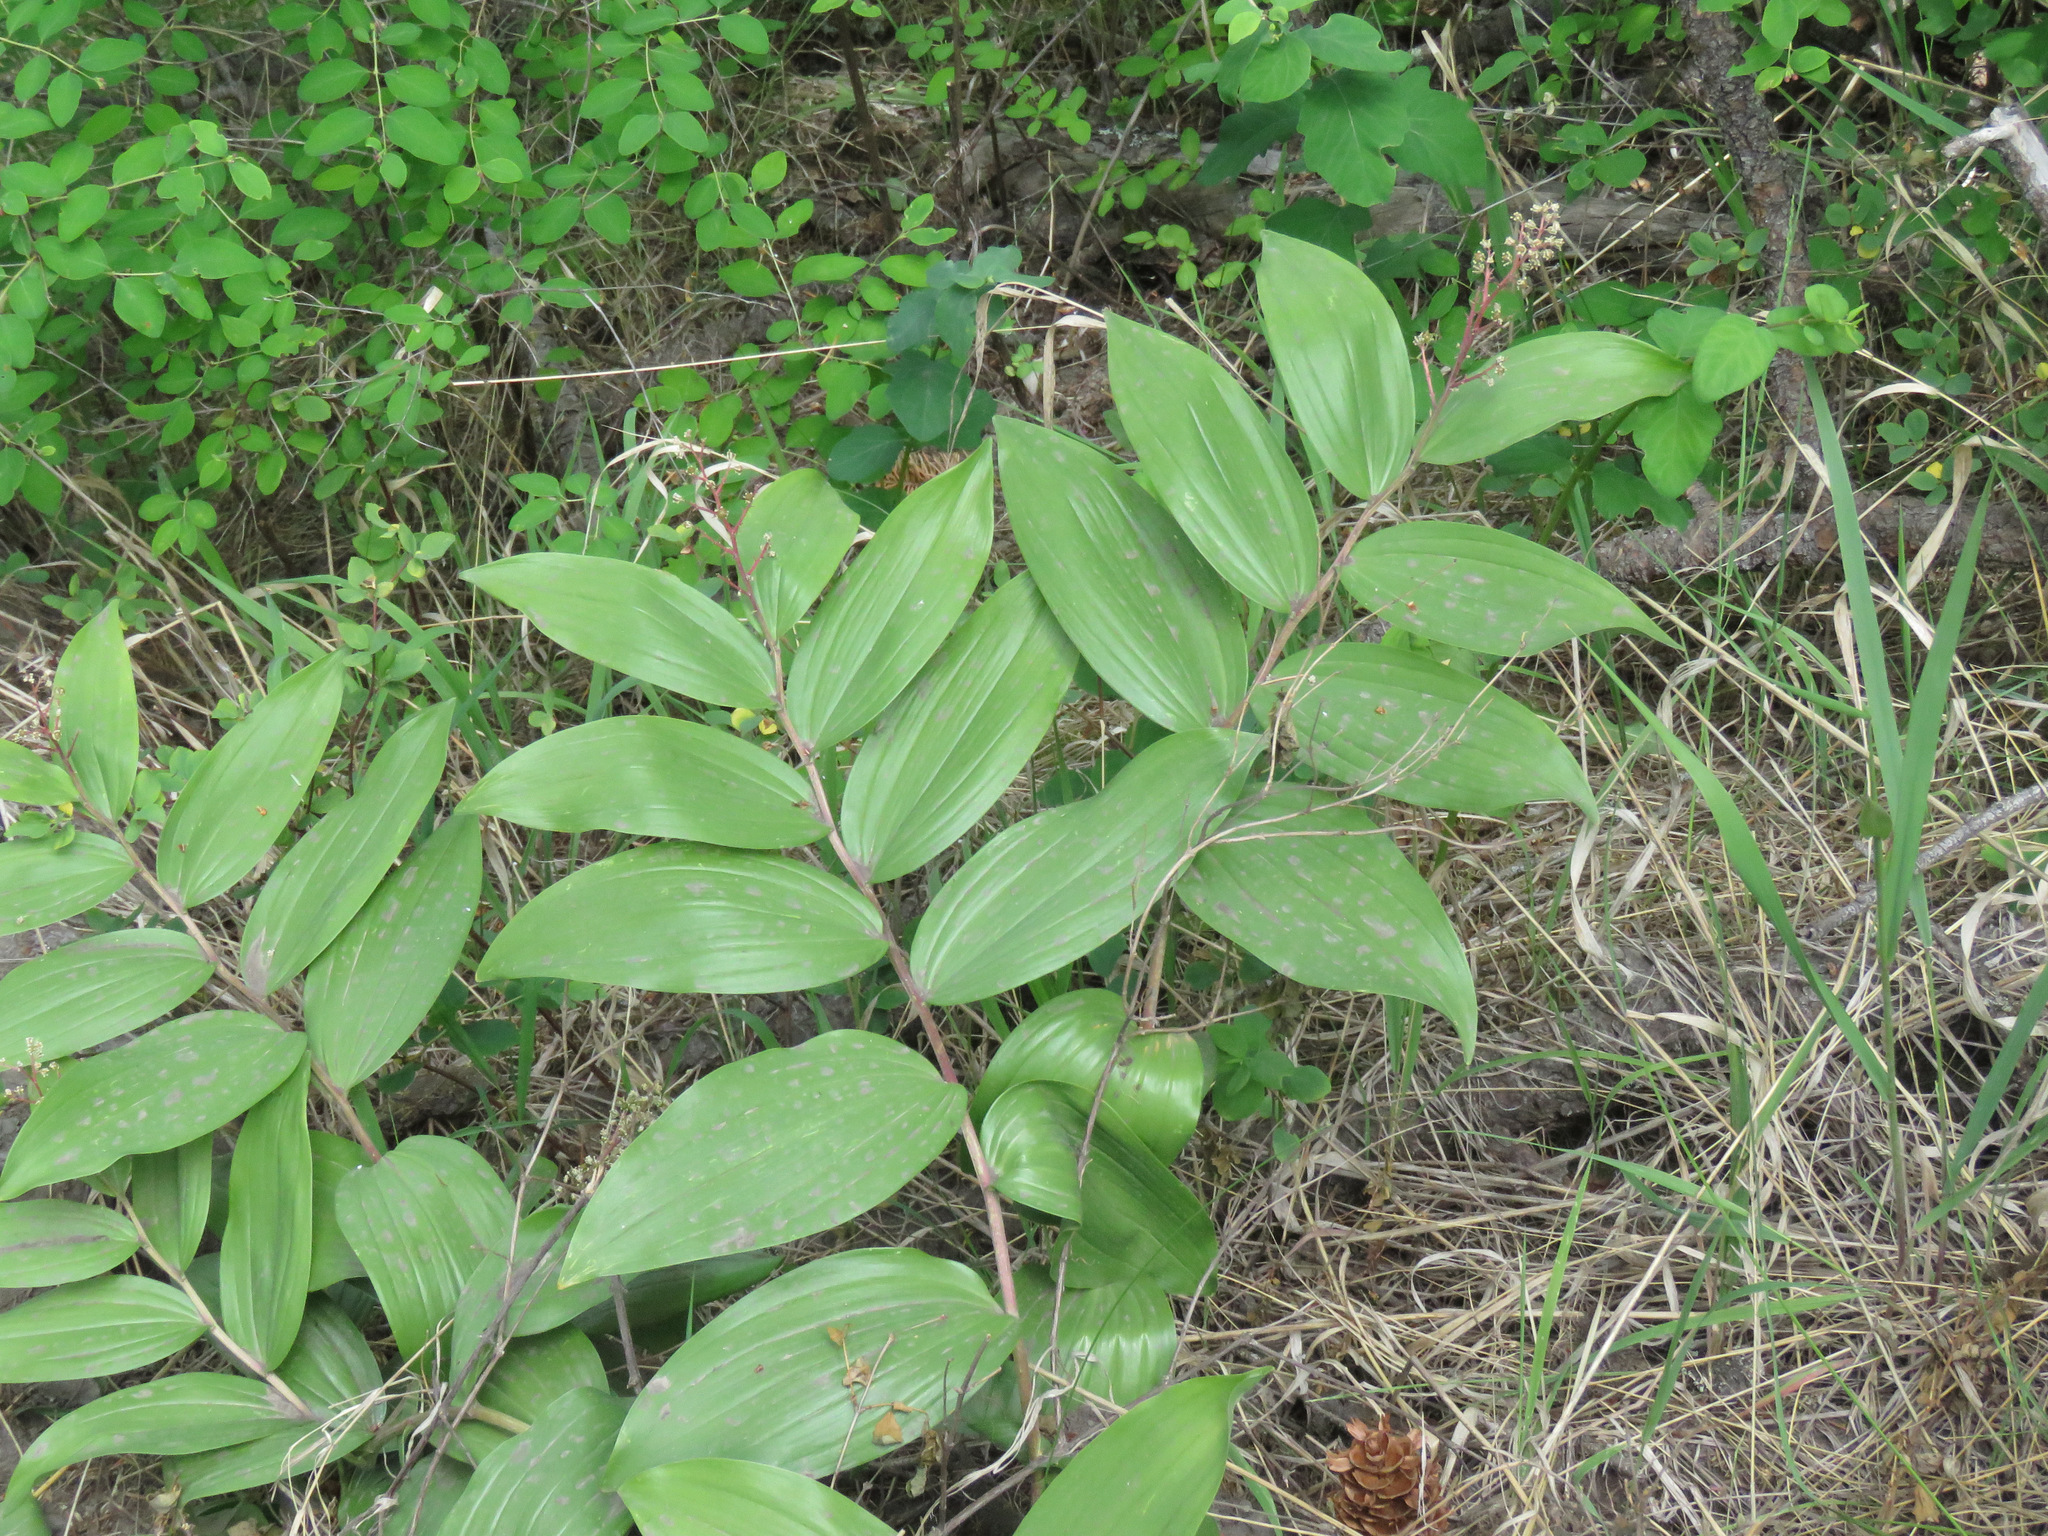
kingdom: Plantae
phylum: Tracheophyta
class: Liliopsida
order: Asparagales
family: Asparagaceae
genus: Maianthemum
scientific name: Maianthemum racemosum
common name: False spikenard
